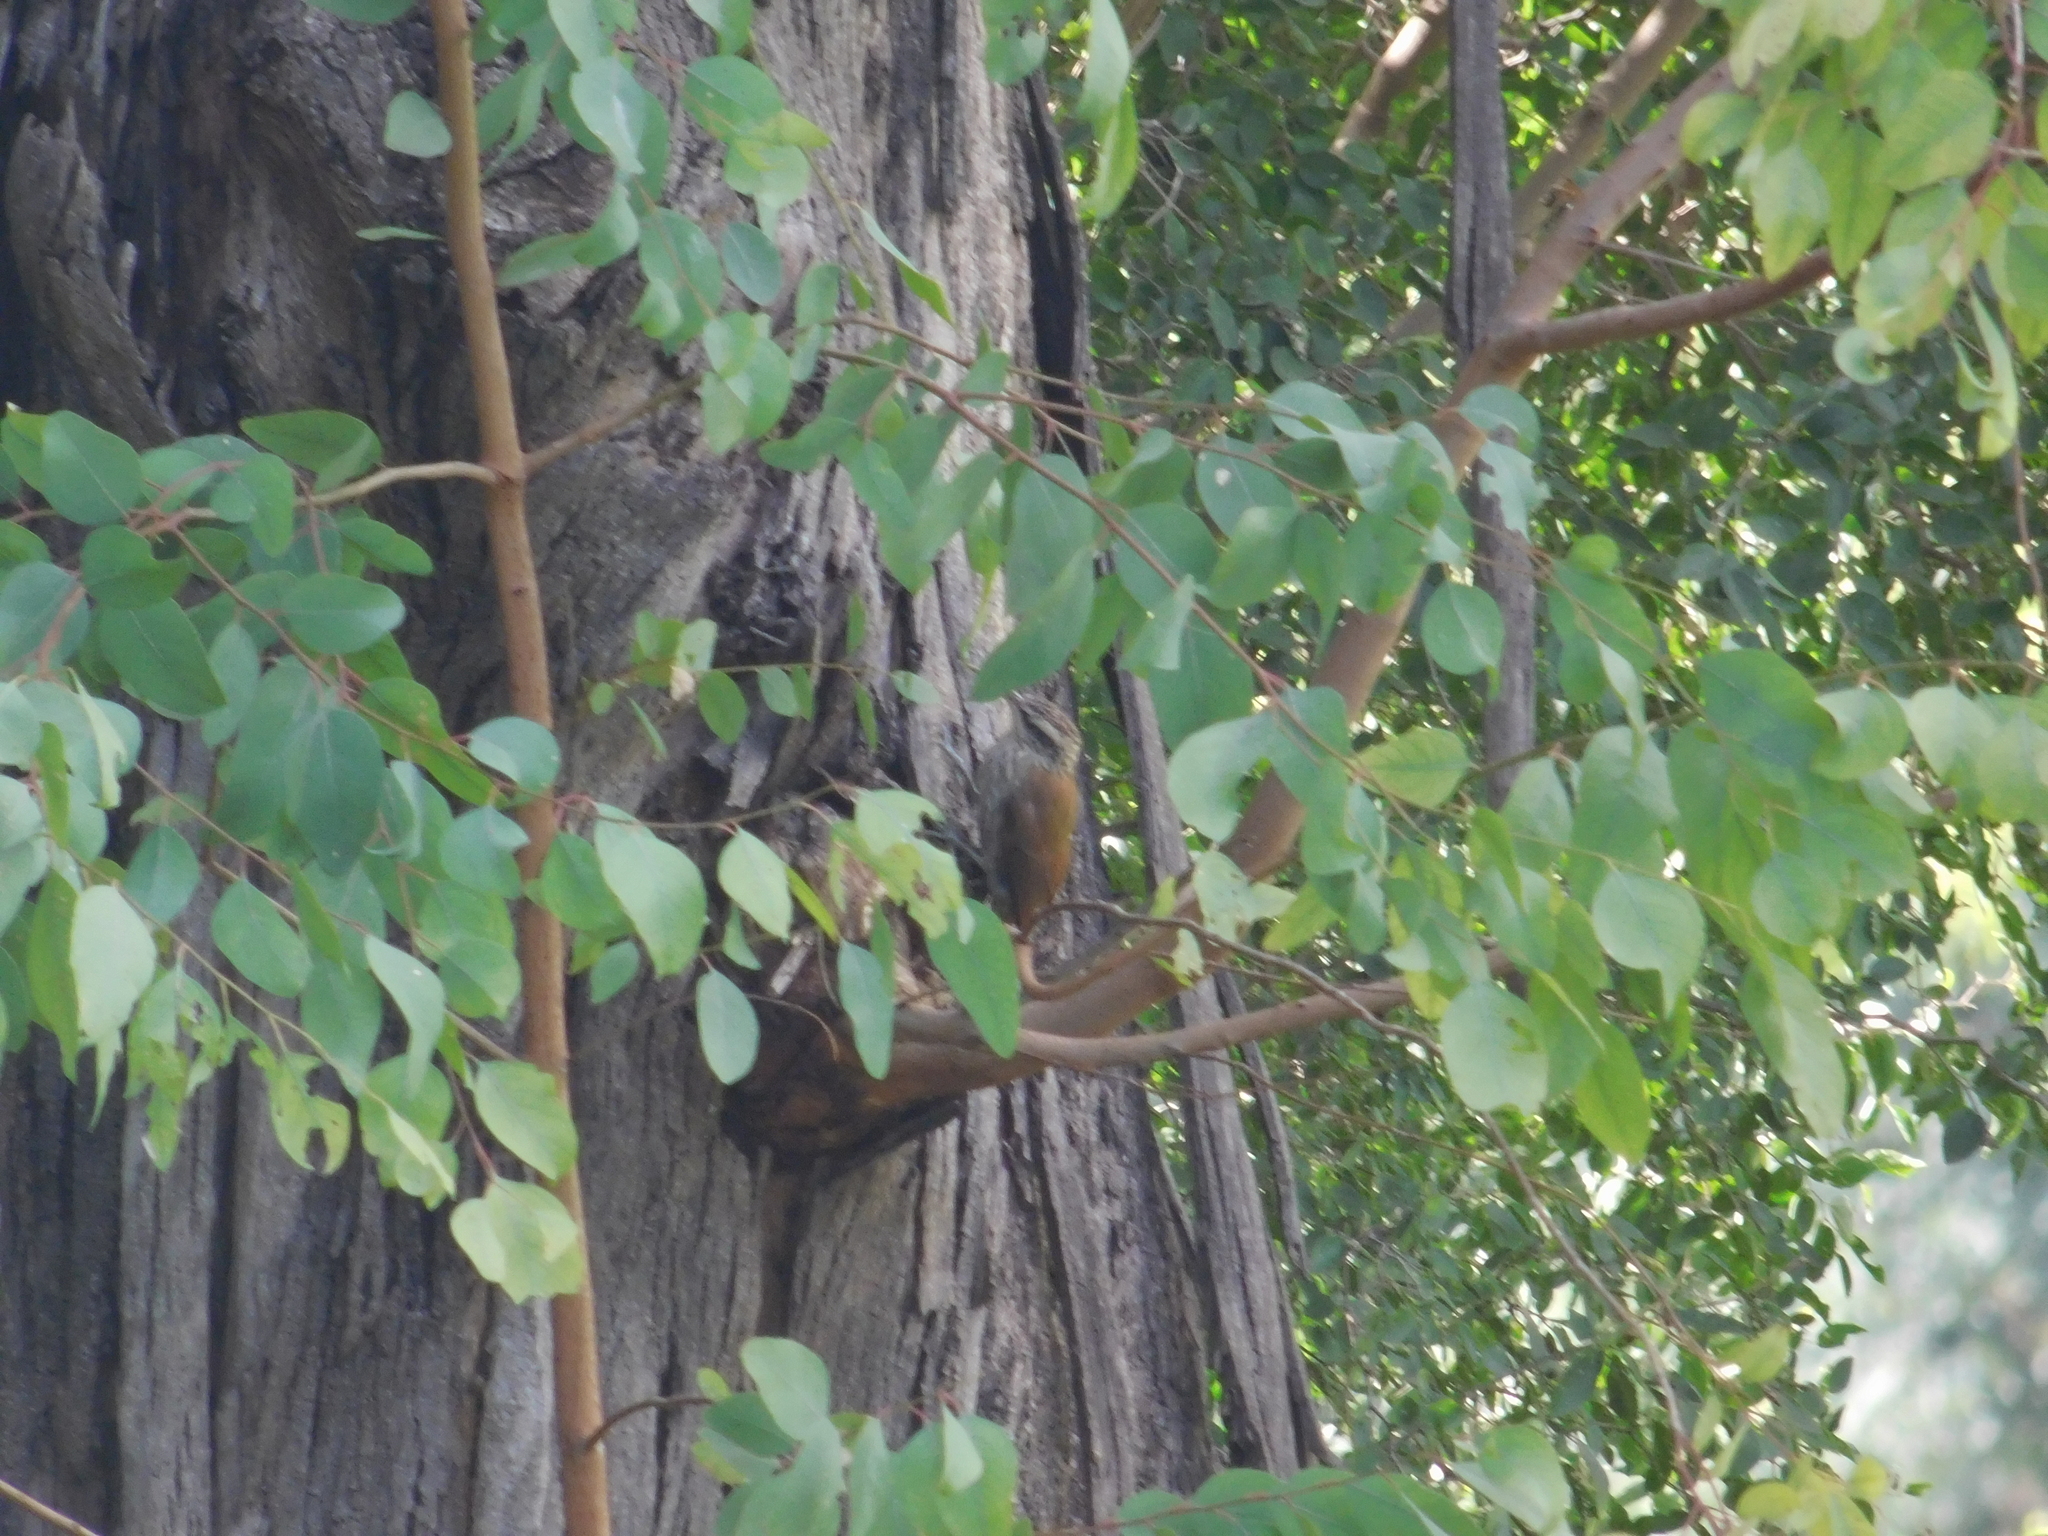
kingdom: Animalia
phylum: Chordata
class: Aves
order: Passeriformes
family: Furnariidae
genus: Lepidocolaptes
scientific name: Lepidocolaptes angustirostris
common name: Narrow-billed woodcreeper
